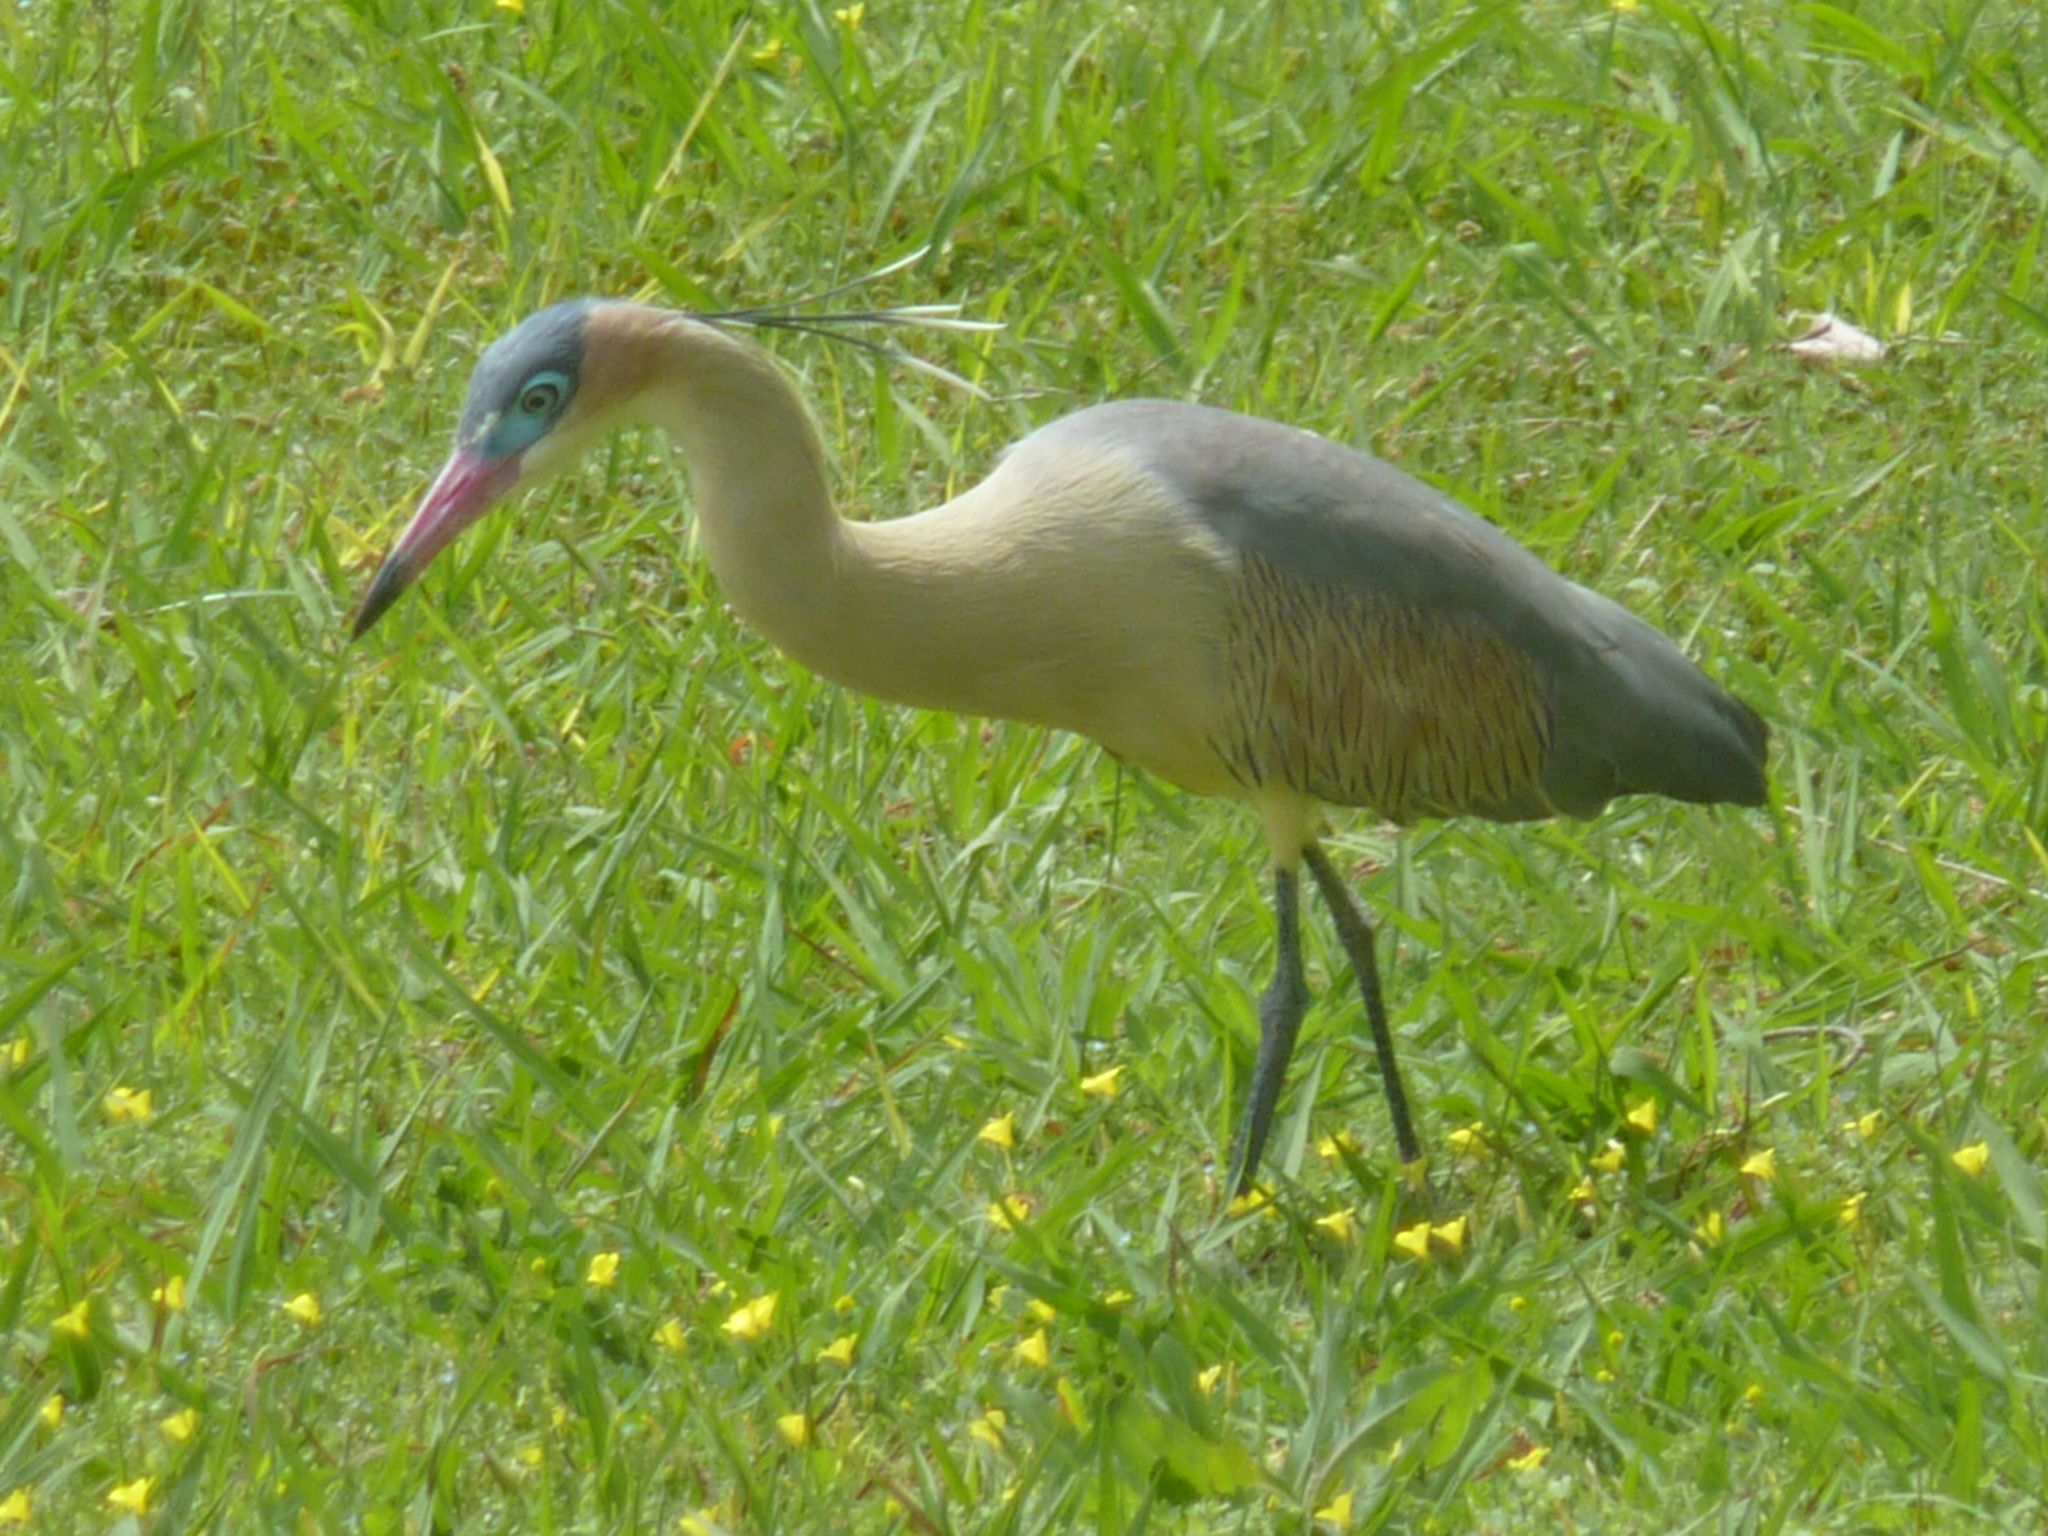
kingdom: Animalia
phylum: Chordata
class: Aves
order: Pelecaniformes
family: Ardeidae
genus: Syrigma
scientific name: Syrigma sibilatrix
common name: Whistling heron
